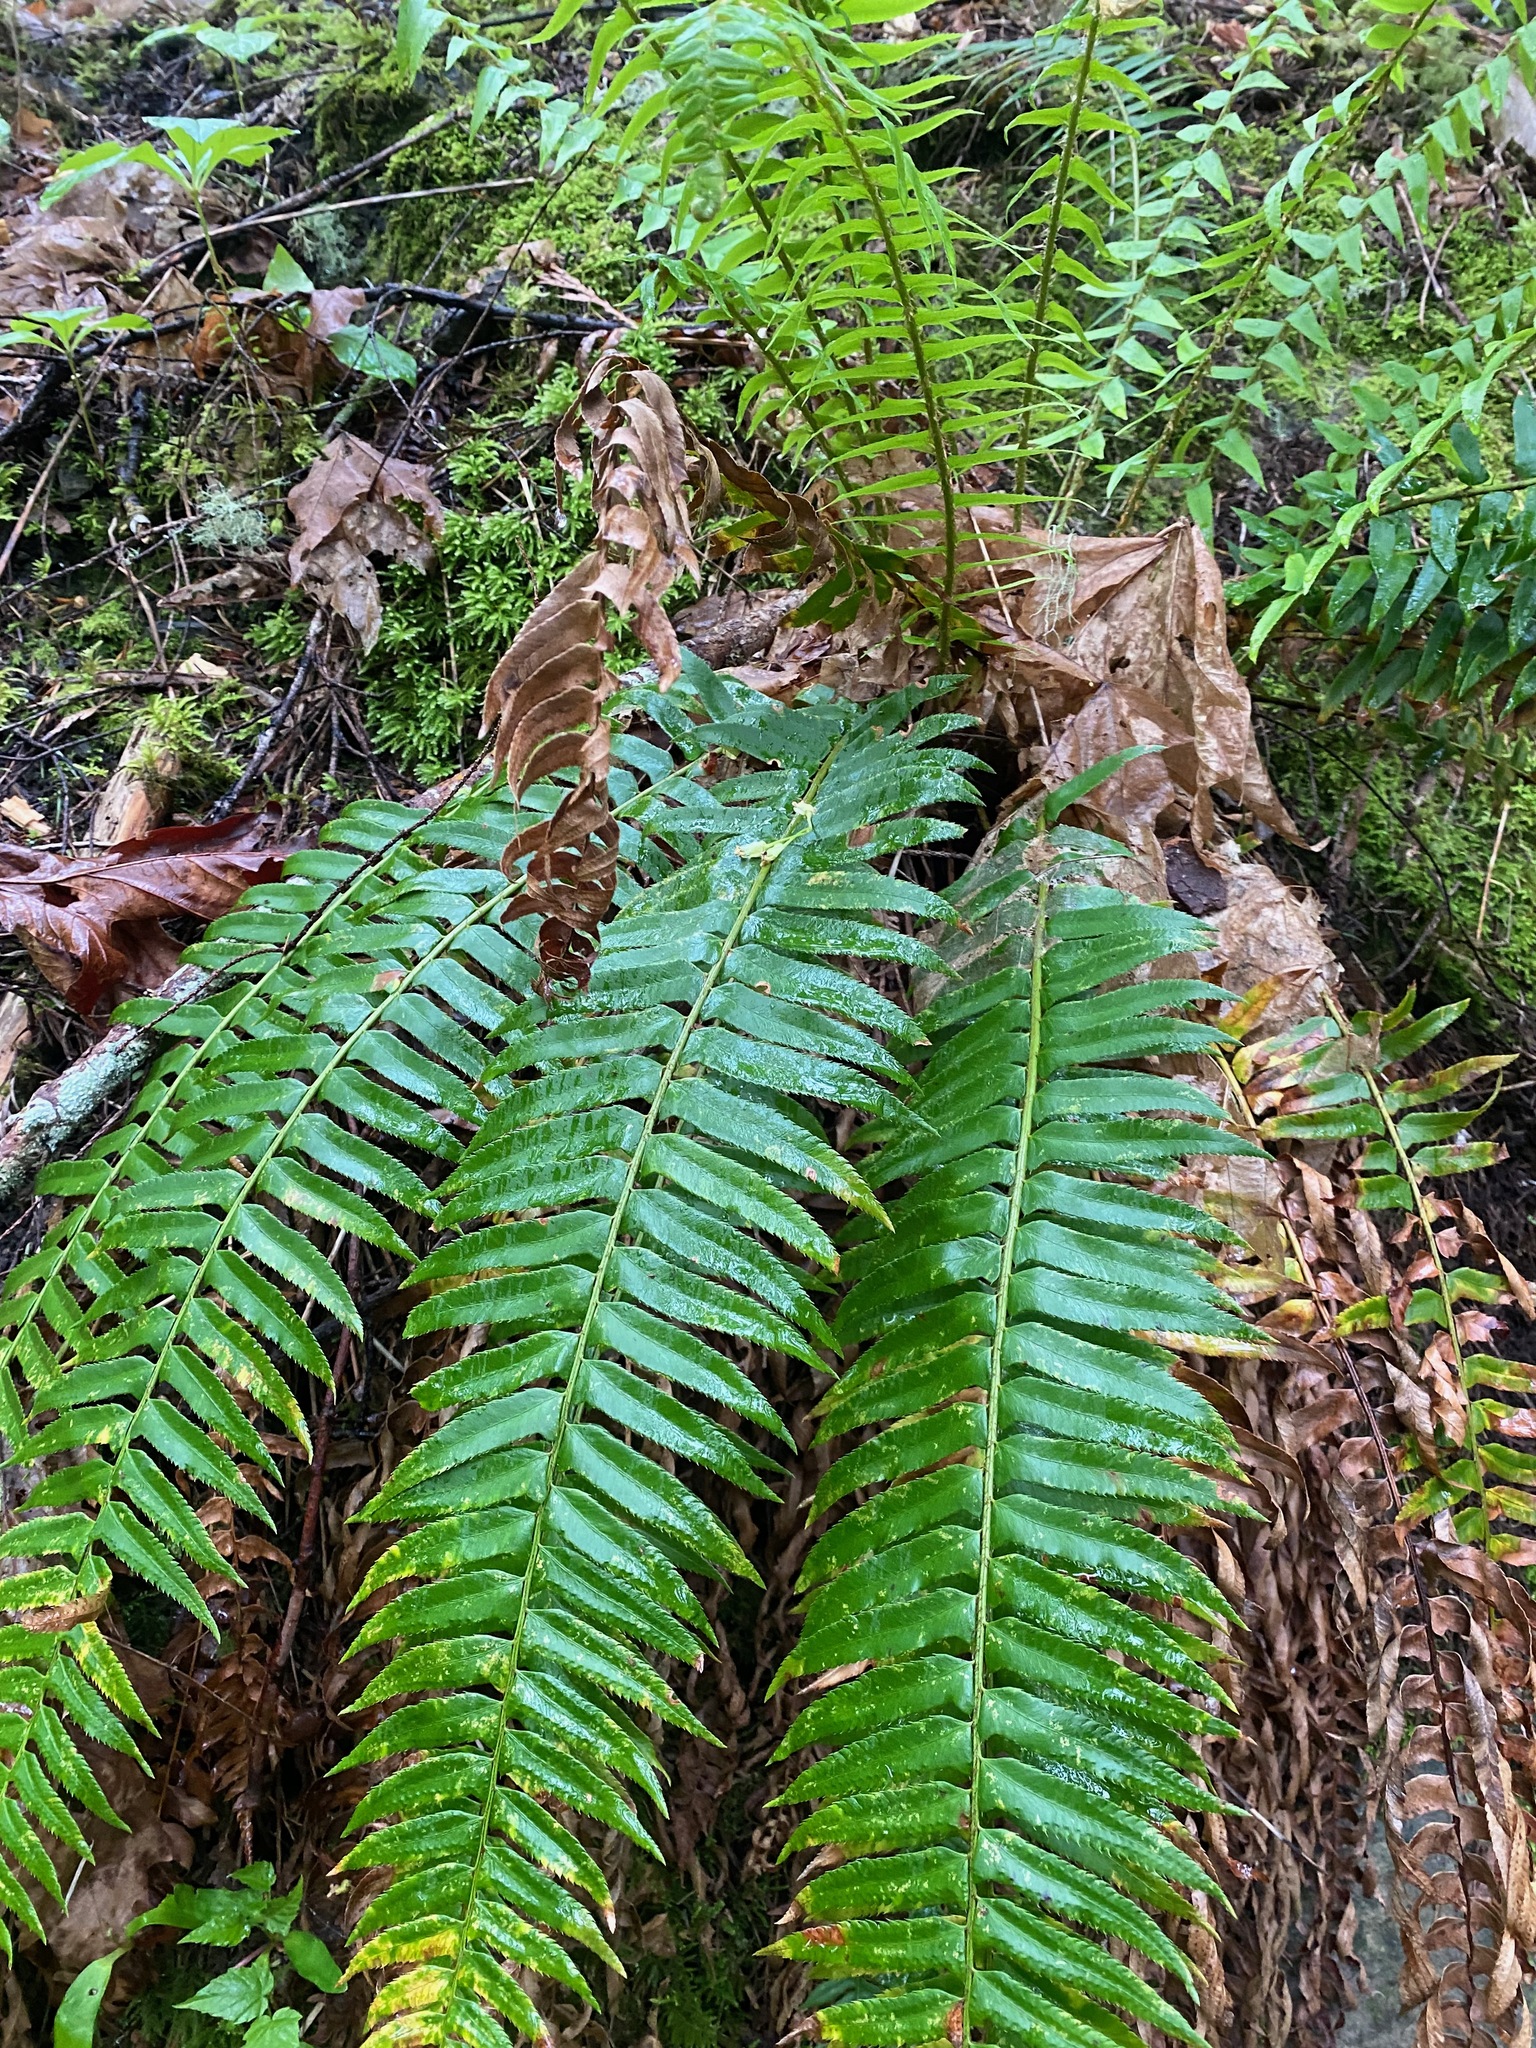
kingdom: Plantae
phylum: Tracheophyta
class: Polypodiopsida
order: Polypodiales
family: Dryopteridaceae
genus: Polystichum
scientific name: Polystichum munitum
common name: Western sword-fern
